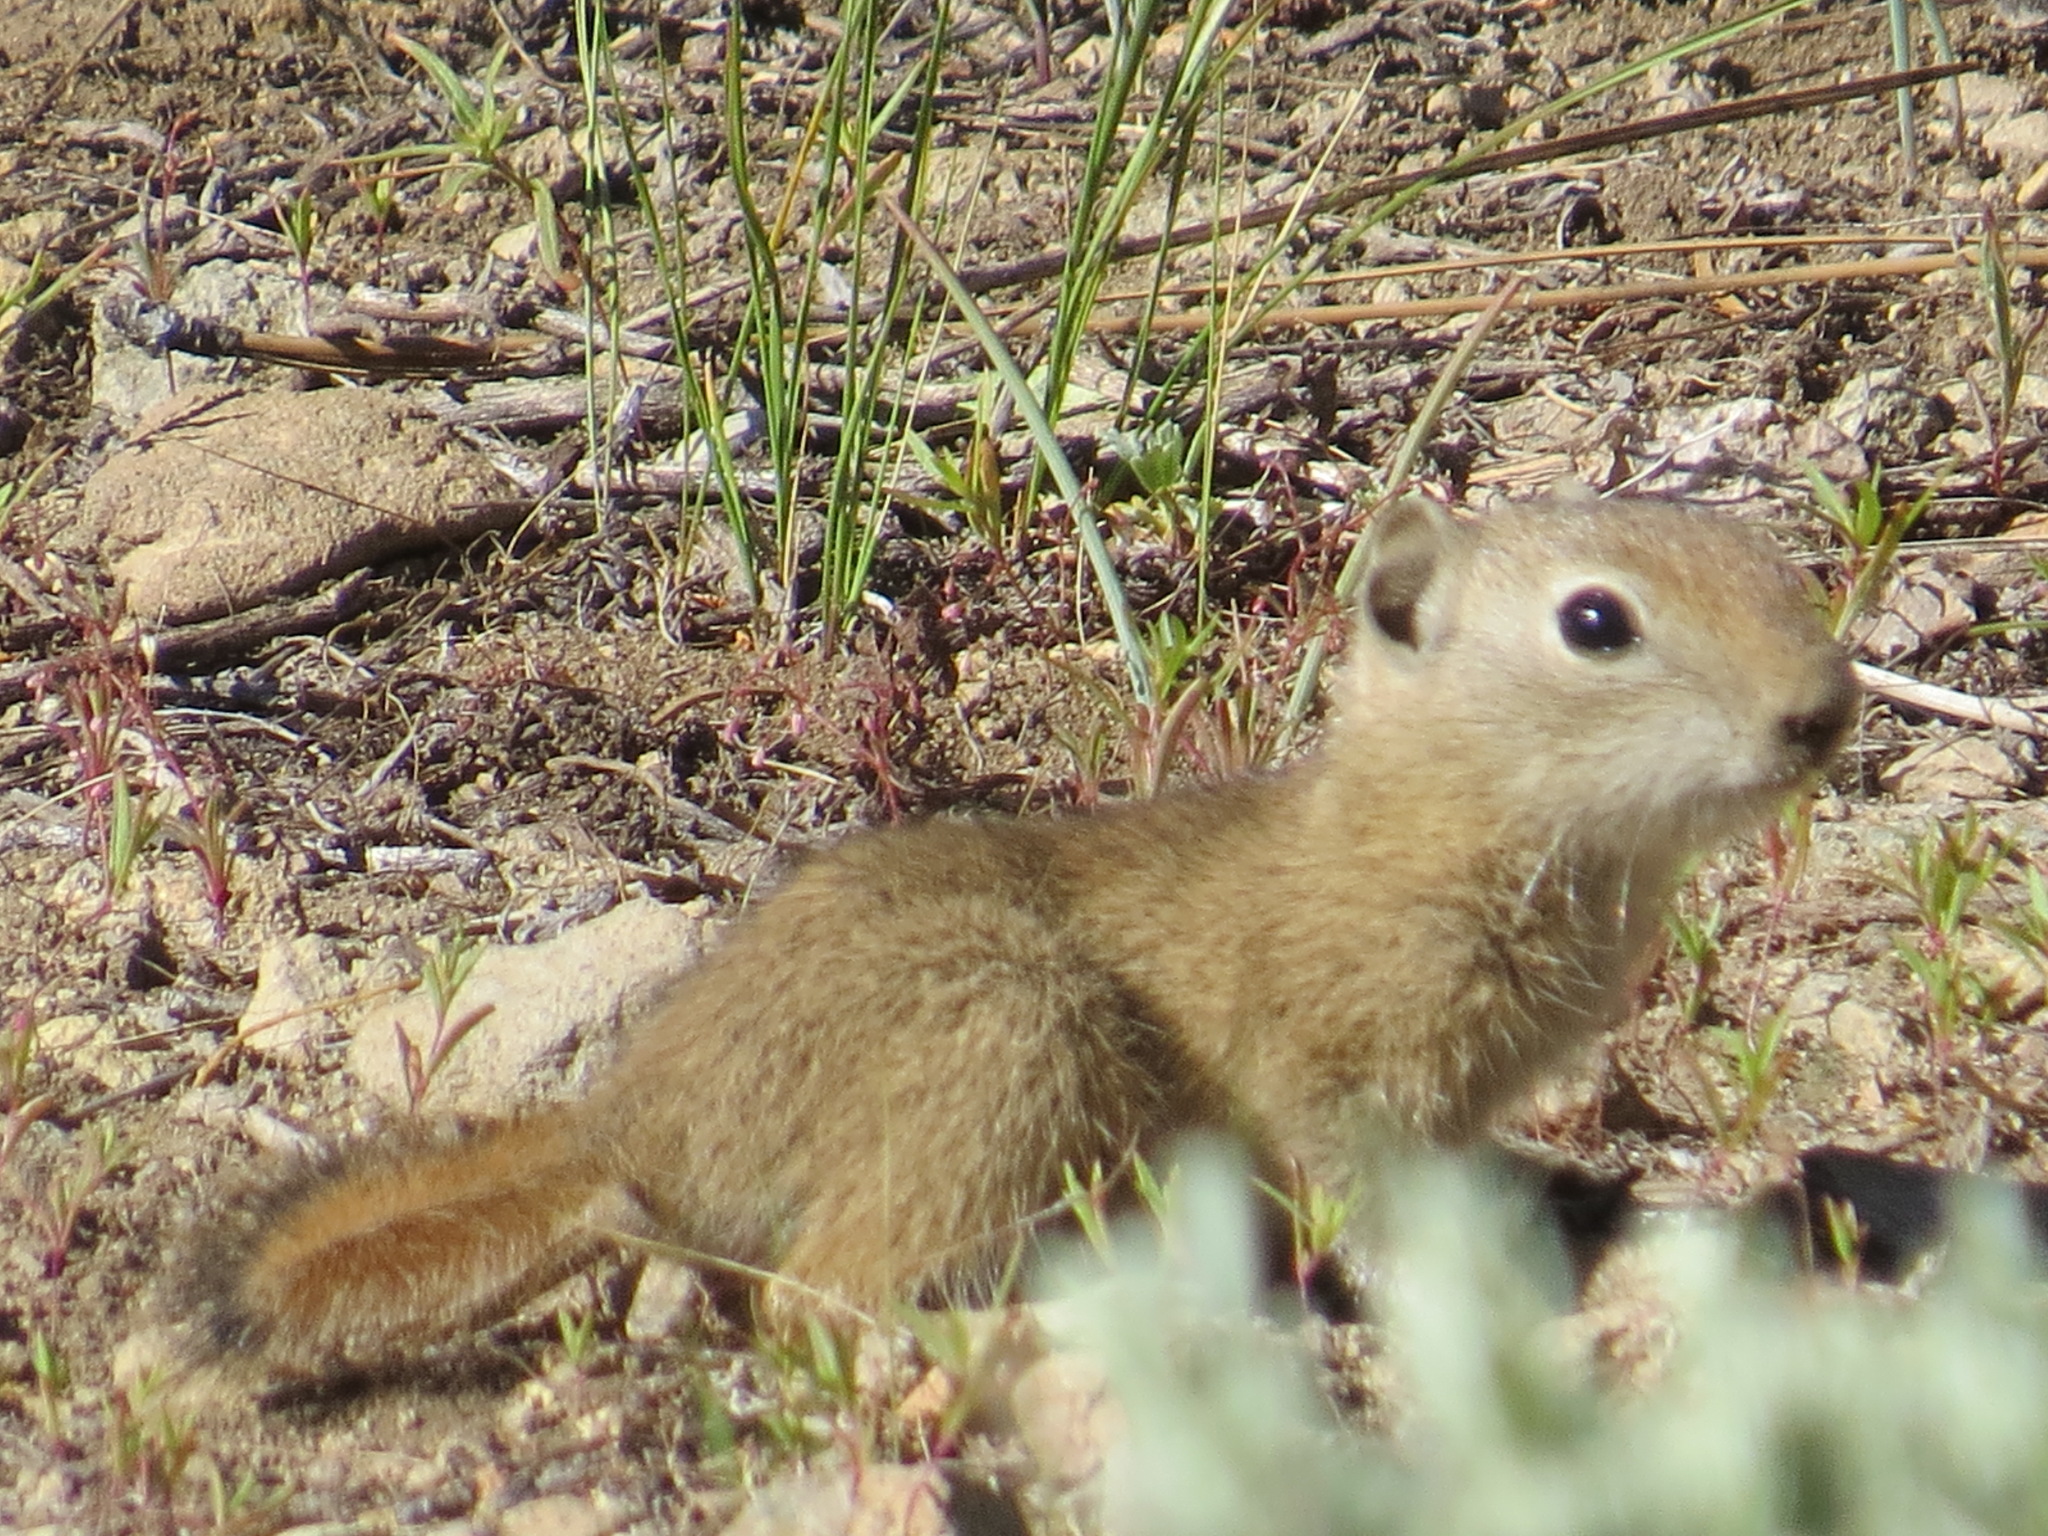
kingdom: Animalia
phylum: Chordata
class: Mammalia
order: Rodentia
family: Sciuridae
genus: Urocitellus
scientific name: Urocitellus beldingi
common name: Belding's ground squirrel
